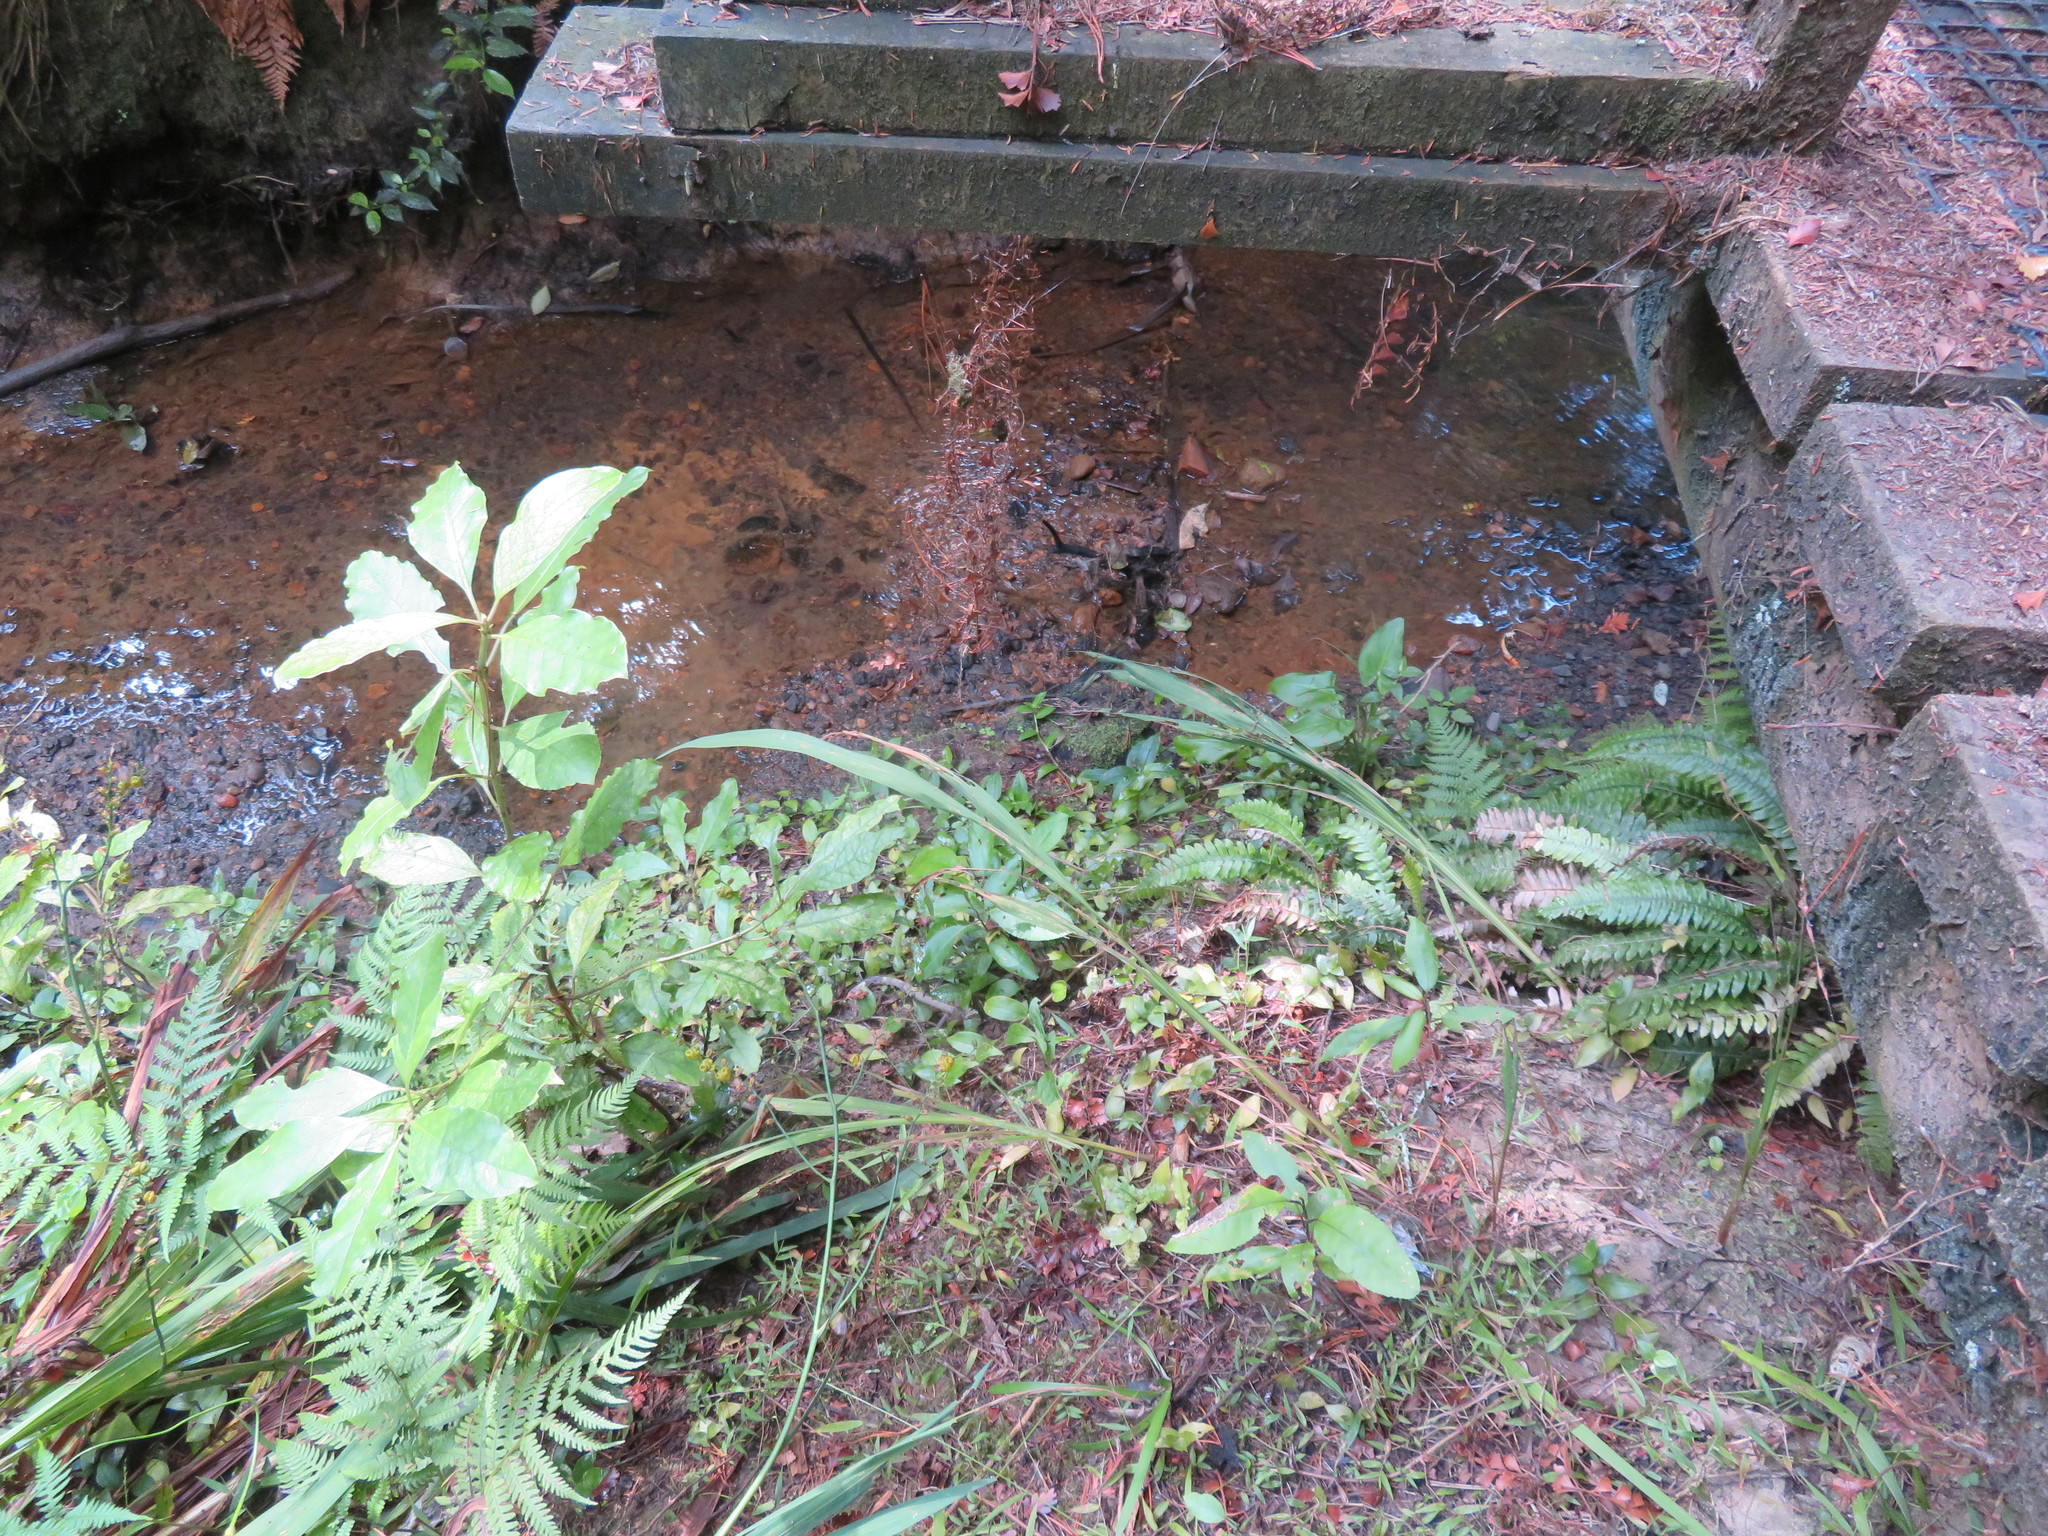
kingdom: Plantae
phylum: Tracheophyta
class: Liliopsida
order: Poales
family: Poaceae
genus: Oplismenus
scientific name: Oplismenus hirtellus
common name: Basketgrass
